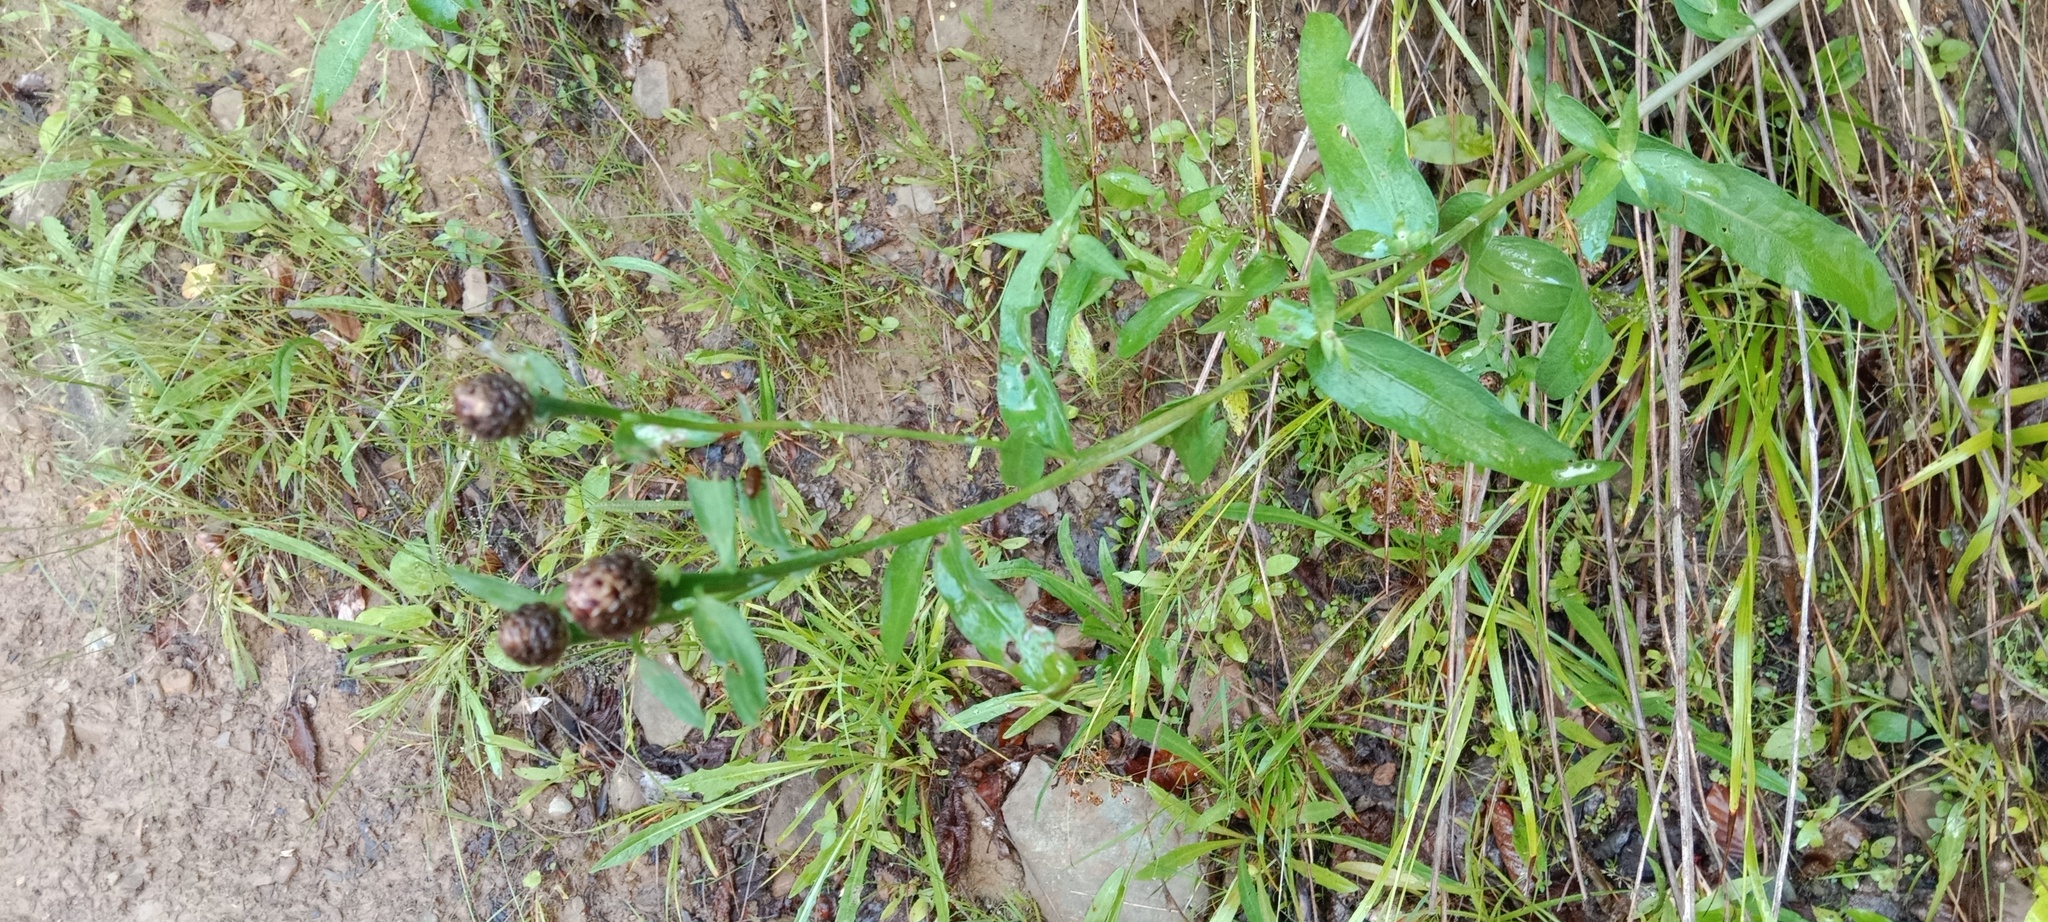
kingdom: Plantae
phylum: Tracheophyta
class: Magnoliopsida
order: Asterales
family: Asteraceae
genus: Centaurea
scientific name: Centaurea jacea
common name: Brown knapweed
